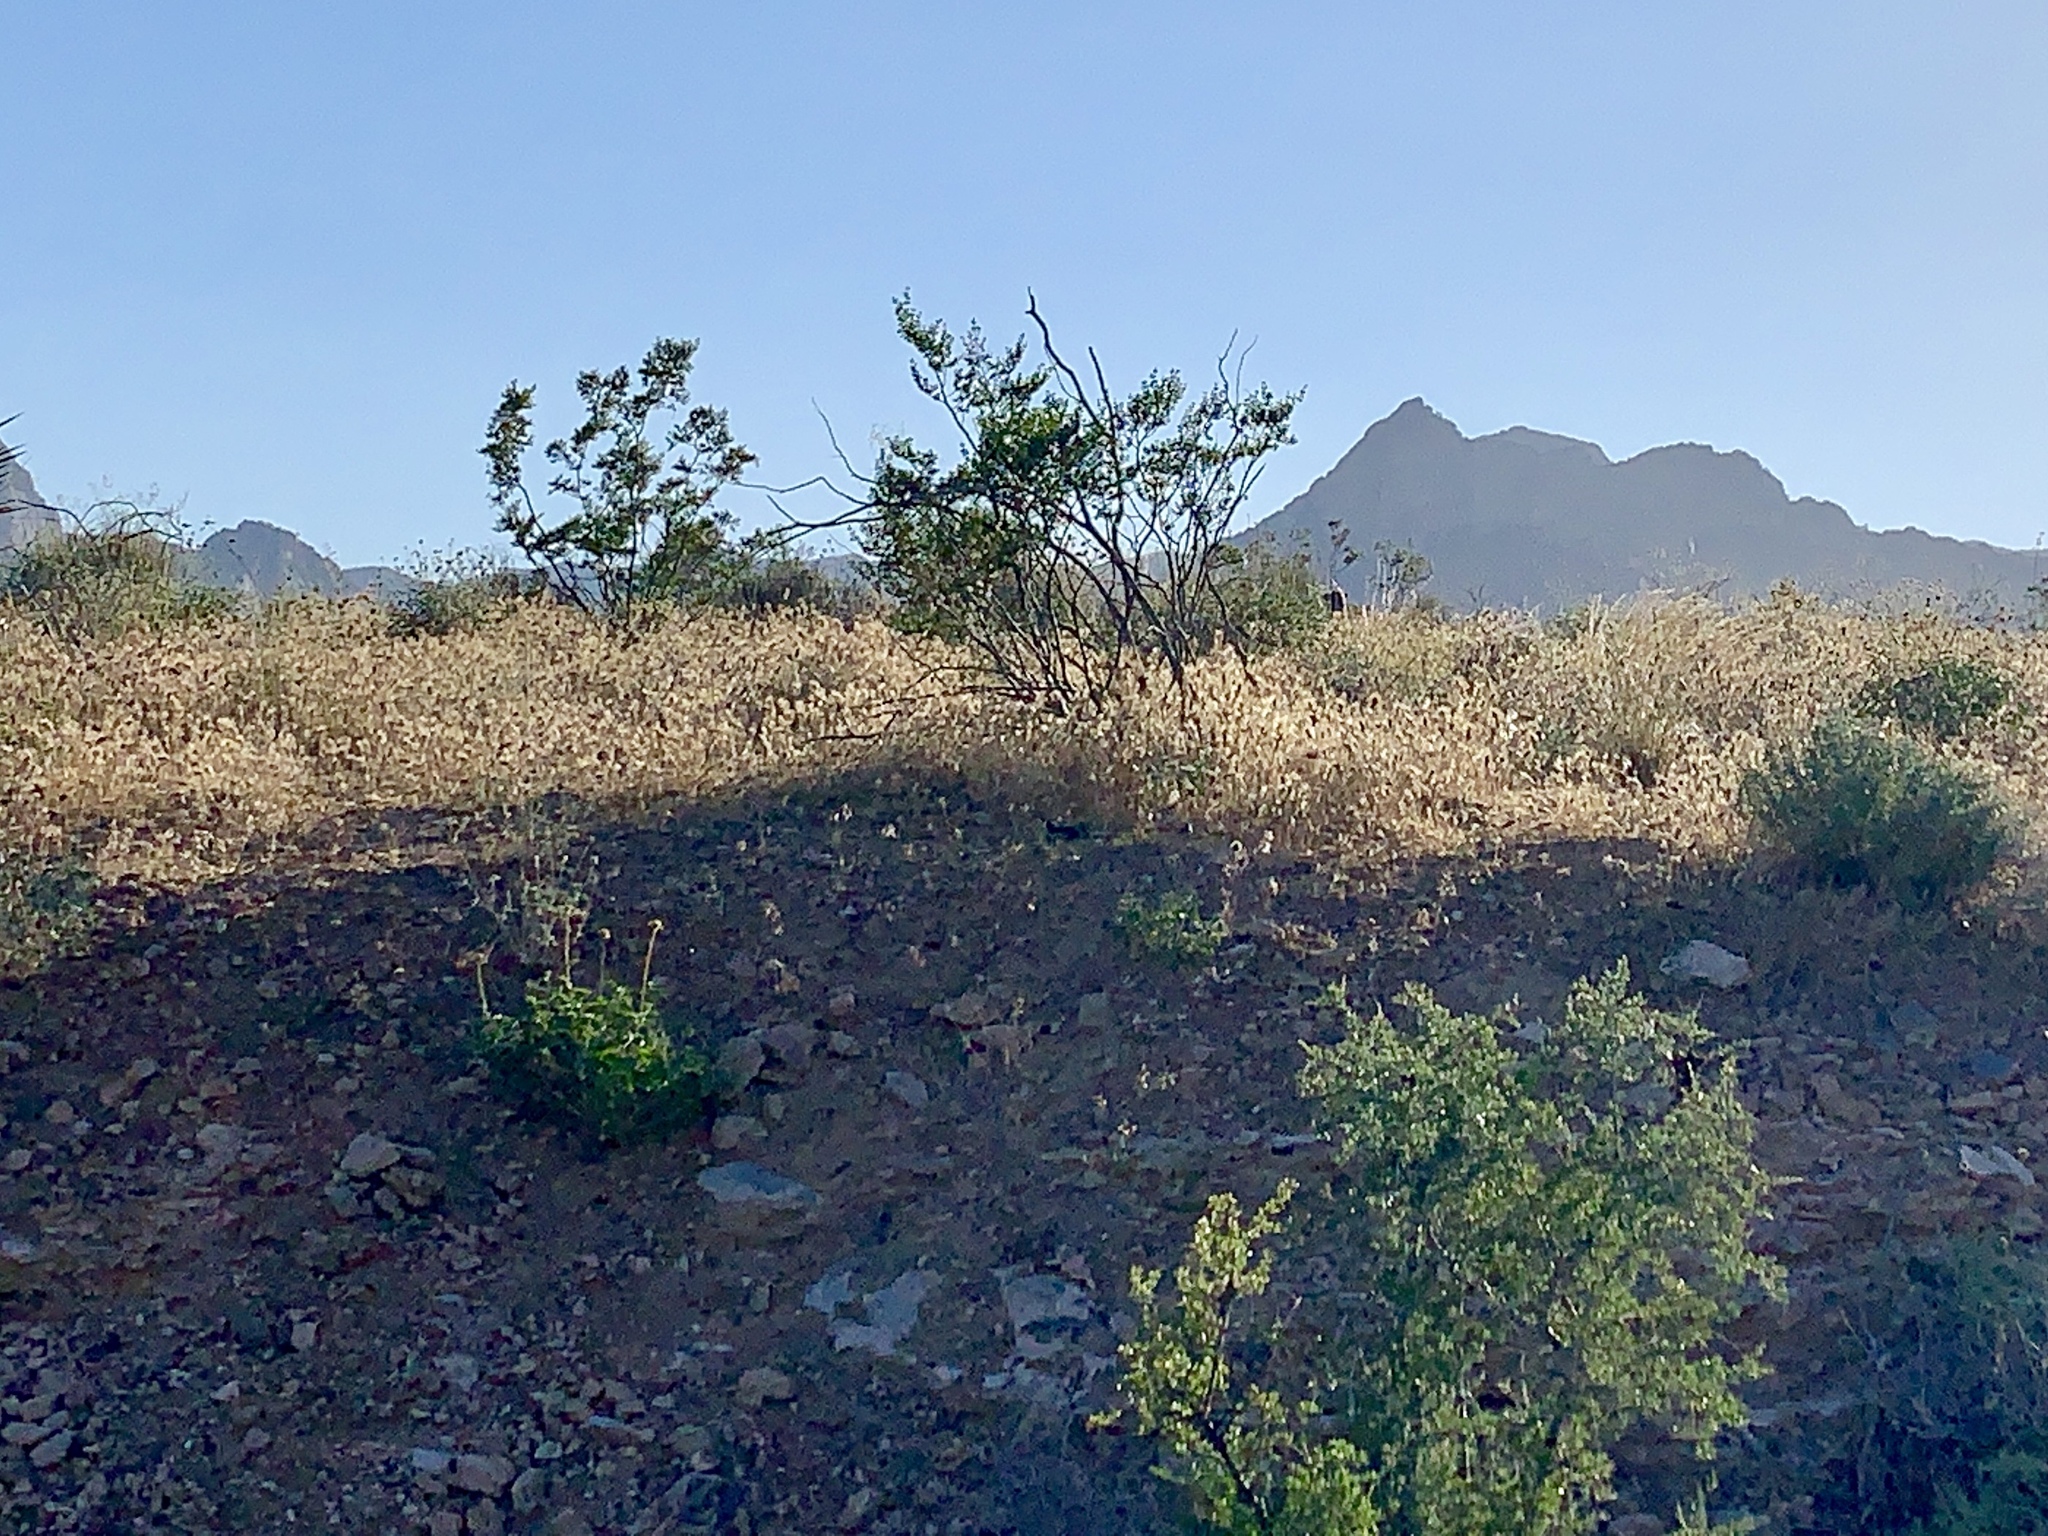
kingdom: Plantae
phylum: Tracheophyta
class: Magnoliopsida
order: Zygophyllales
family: Zygophyllaceae
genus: Larrea
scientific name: Larrea tridentata
